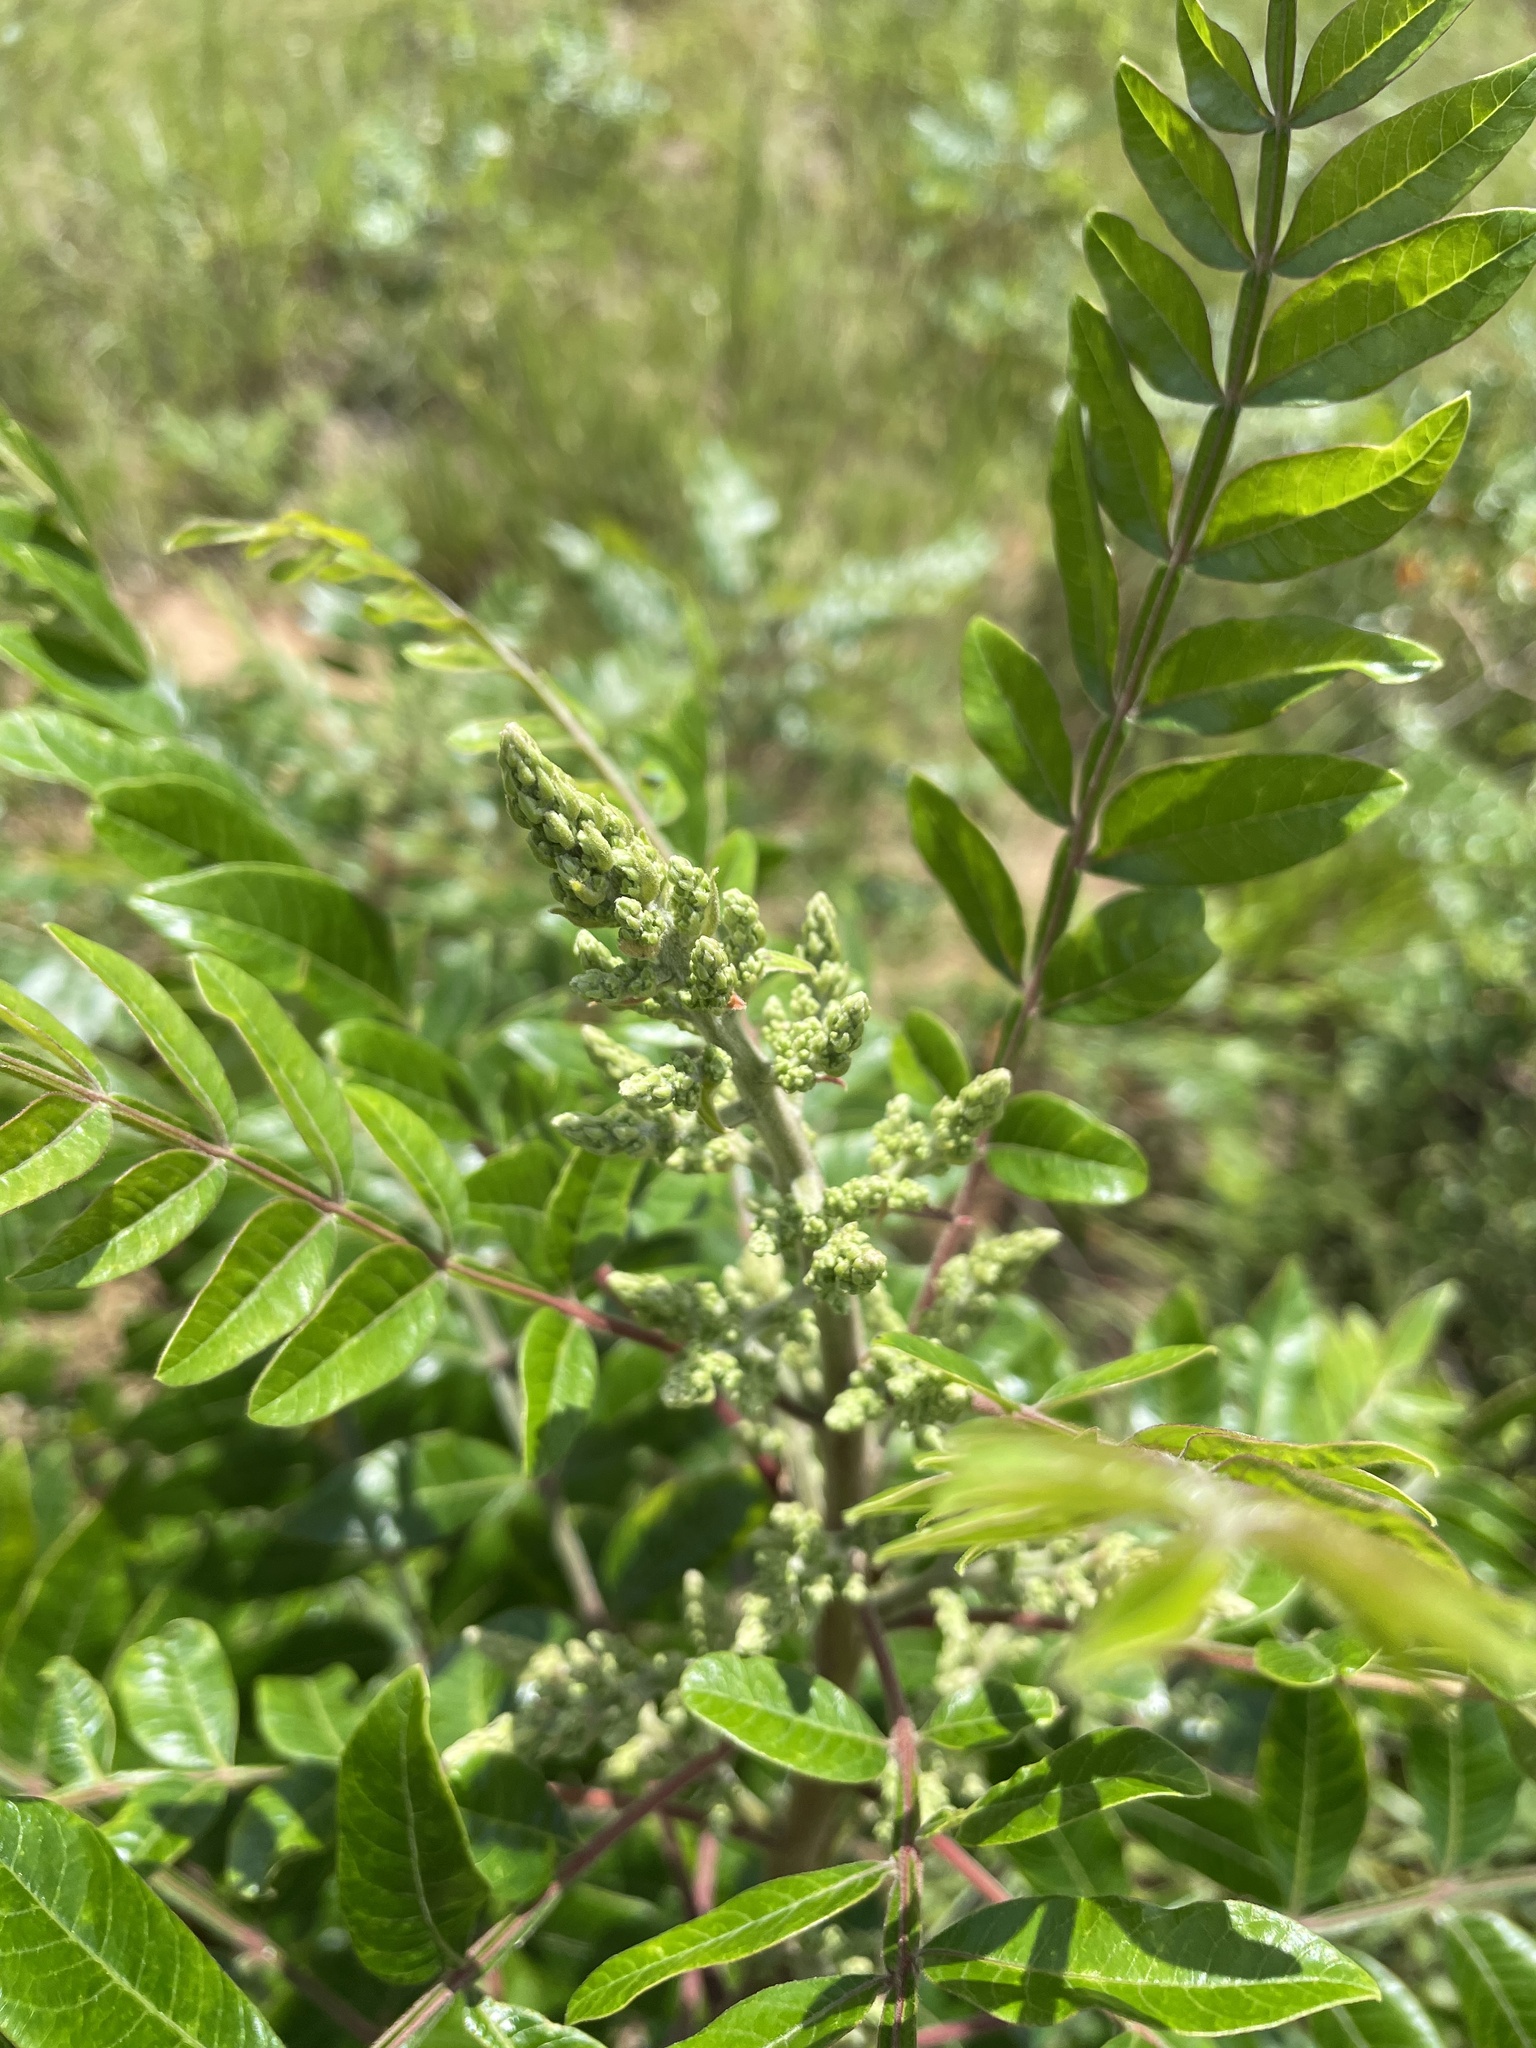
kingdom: Plantae
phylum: Tracheophyta
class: Magnoliopsida
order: Sapindales
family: Anacardiaceae
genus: Rhus
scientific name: Rhus copallina
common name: Shining sumac
